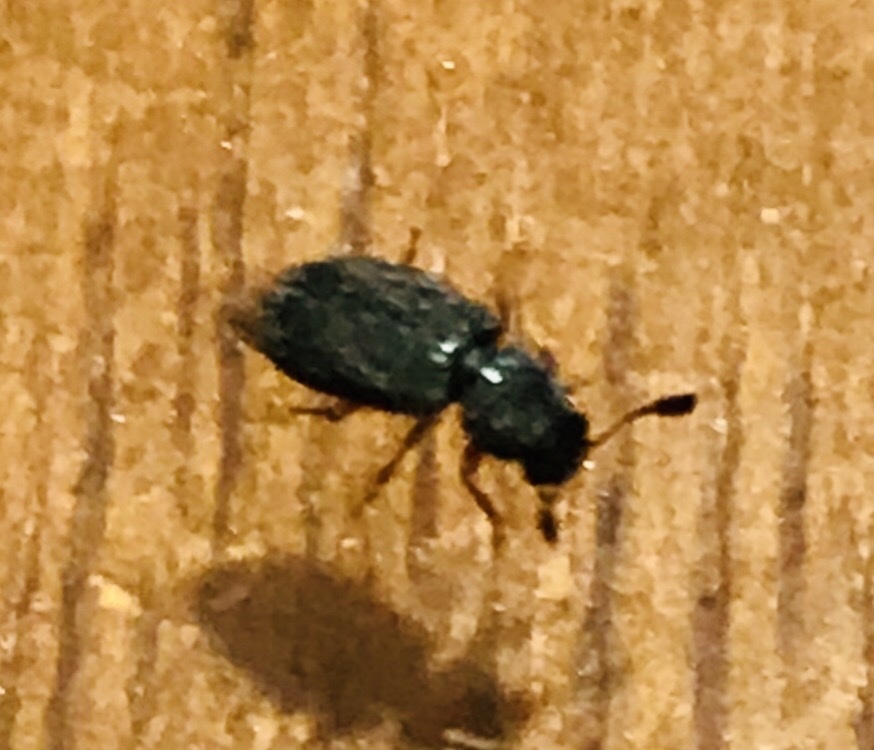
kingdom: Animalia
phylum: Arthropoda
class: Insecta
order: Coleoptera
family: Cleridae
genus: Necrobia
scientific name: Necrobia rufipes
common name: Red-legged ham beetle
